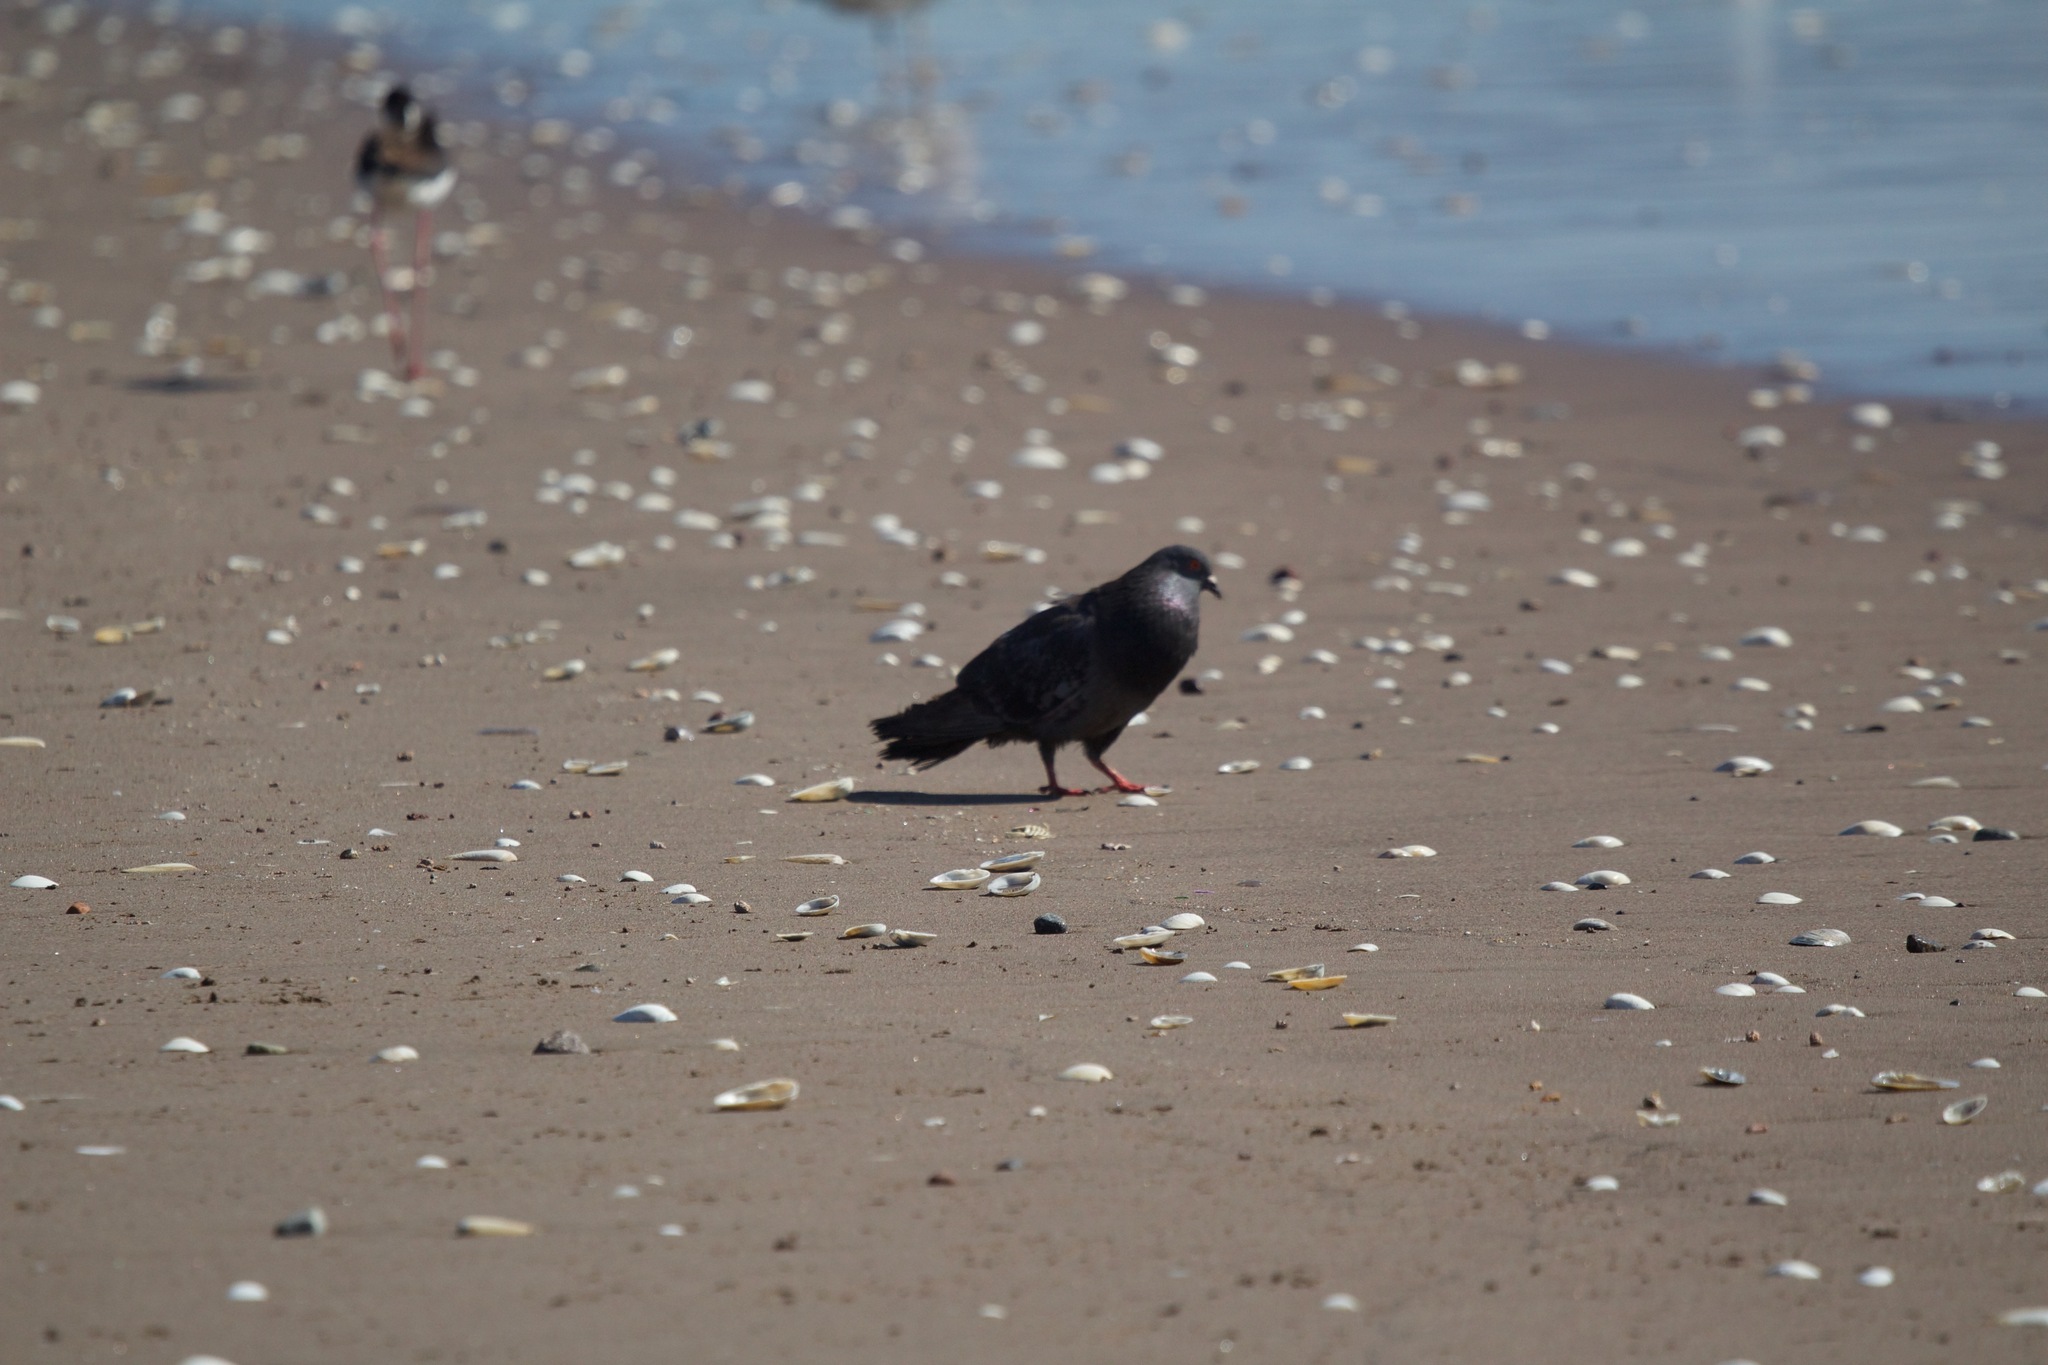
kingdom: Animalia
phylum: Chordata
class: Aves
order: Columbiformes
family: Columbidae
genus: Columba
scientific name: Columba livia
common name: Rock pigeon
